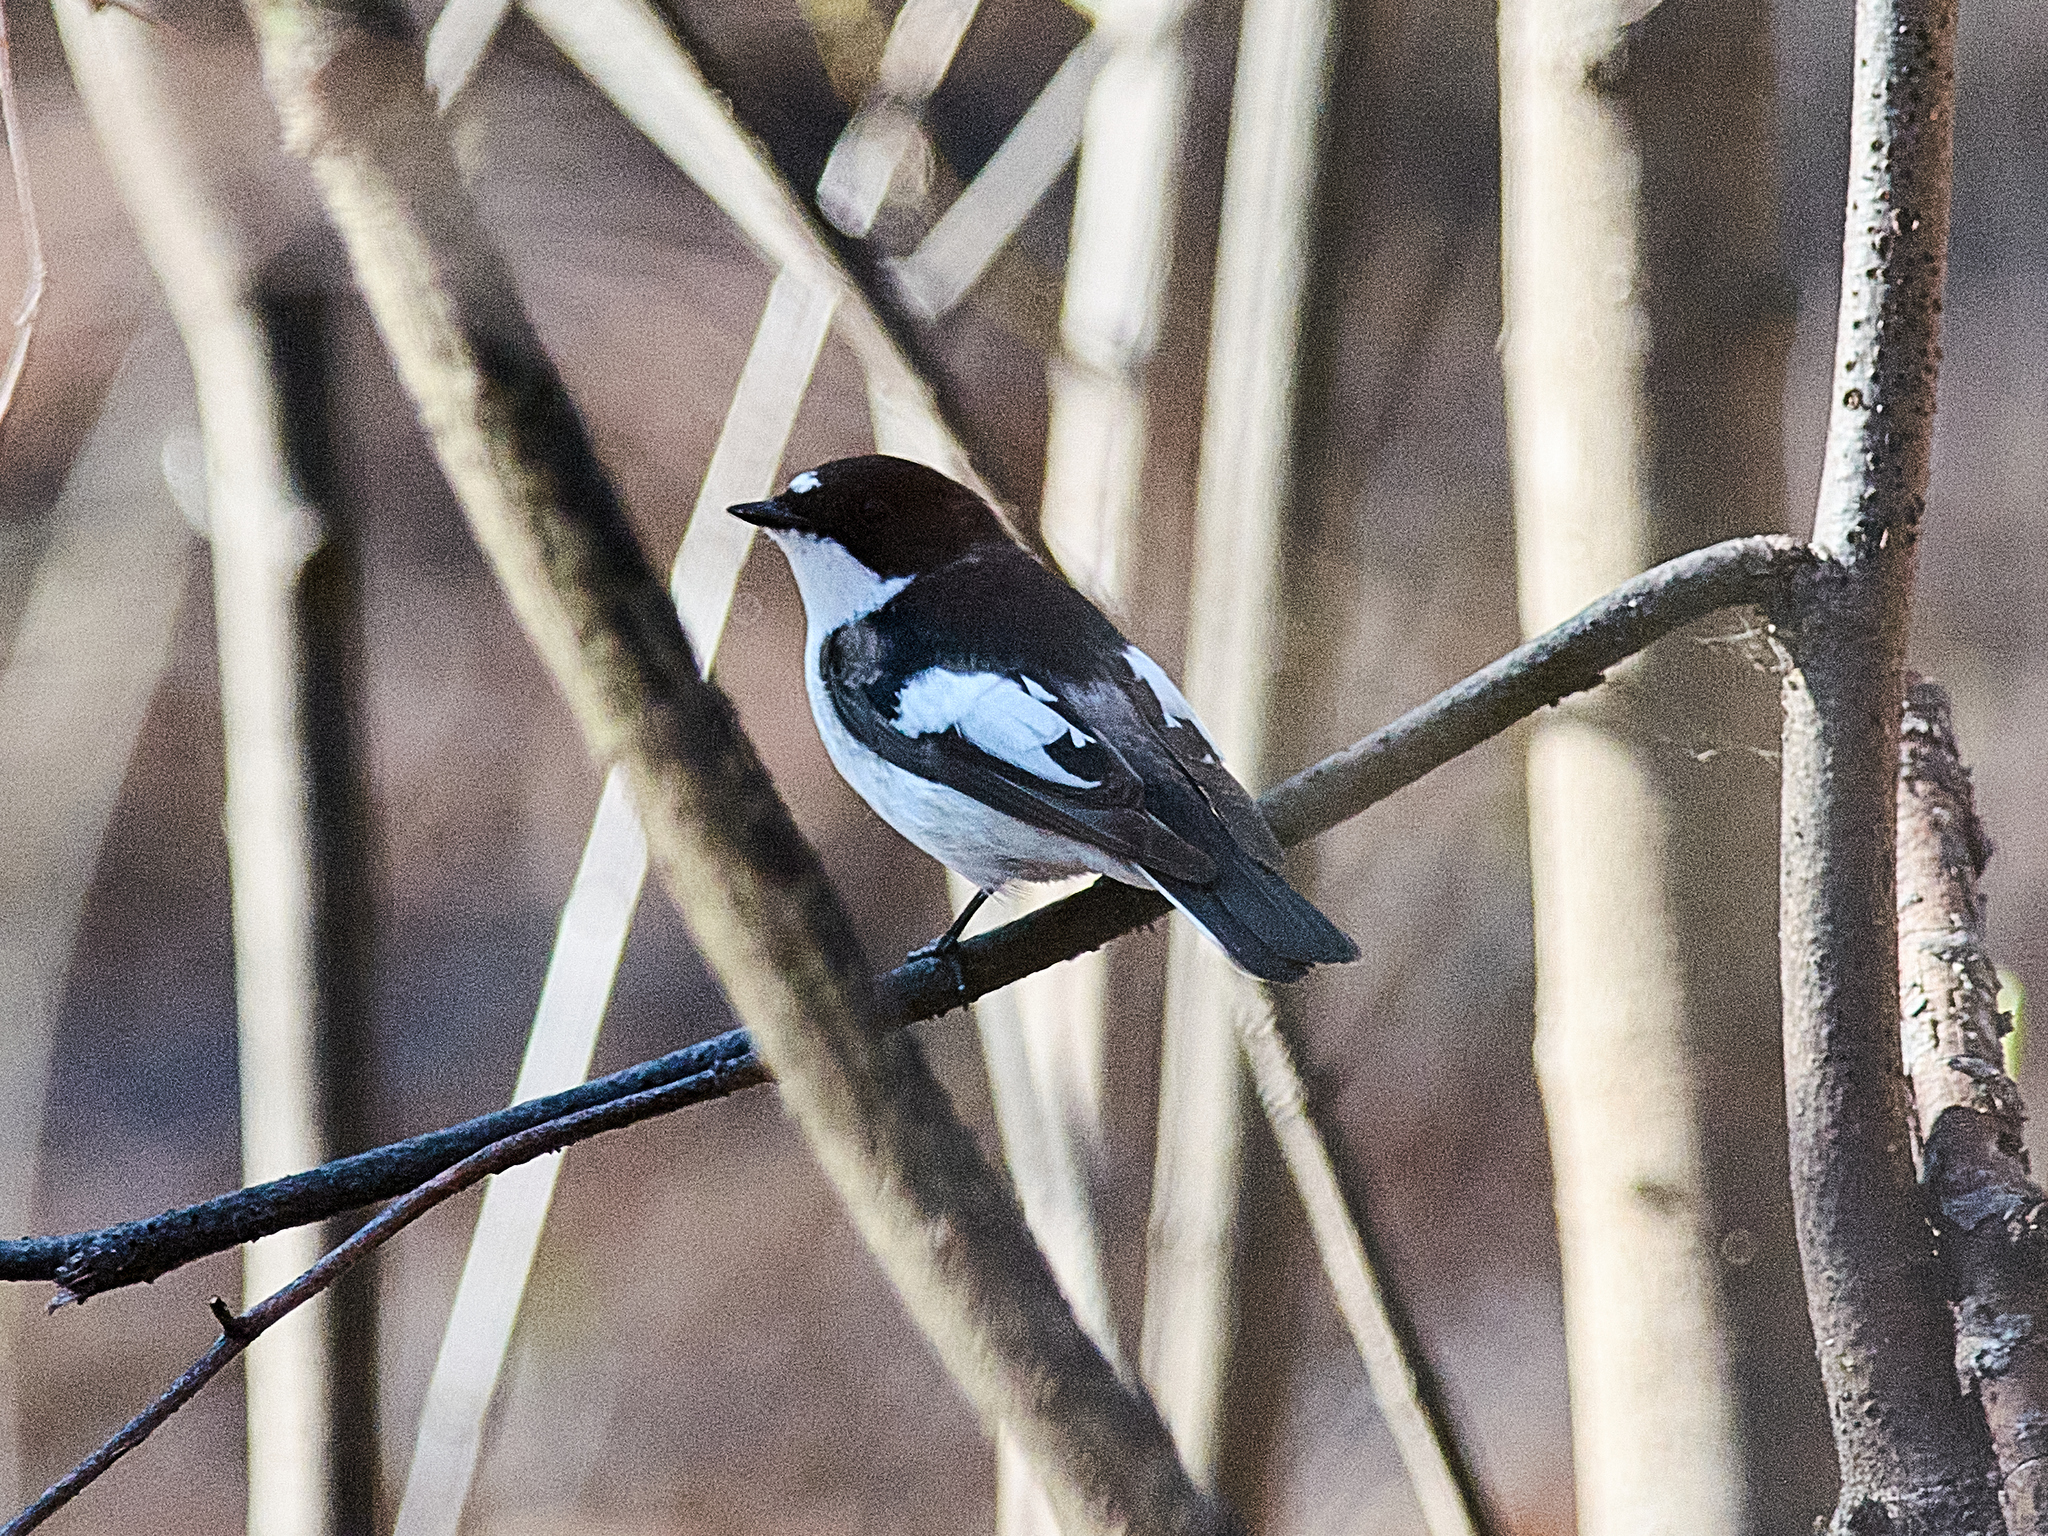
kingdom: Animalia
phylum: Chordata
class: Aves
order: Passeriformes
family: Muscicapidae
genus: Ficedula
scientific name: Ficedula hypoleuca
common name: European pied flycatcher
